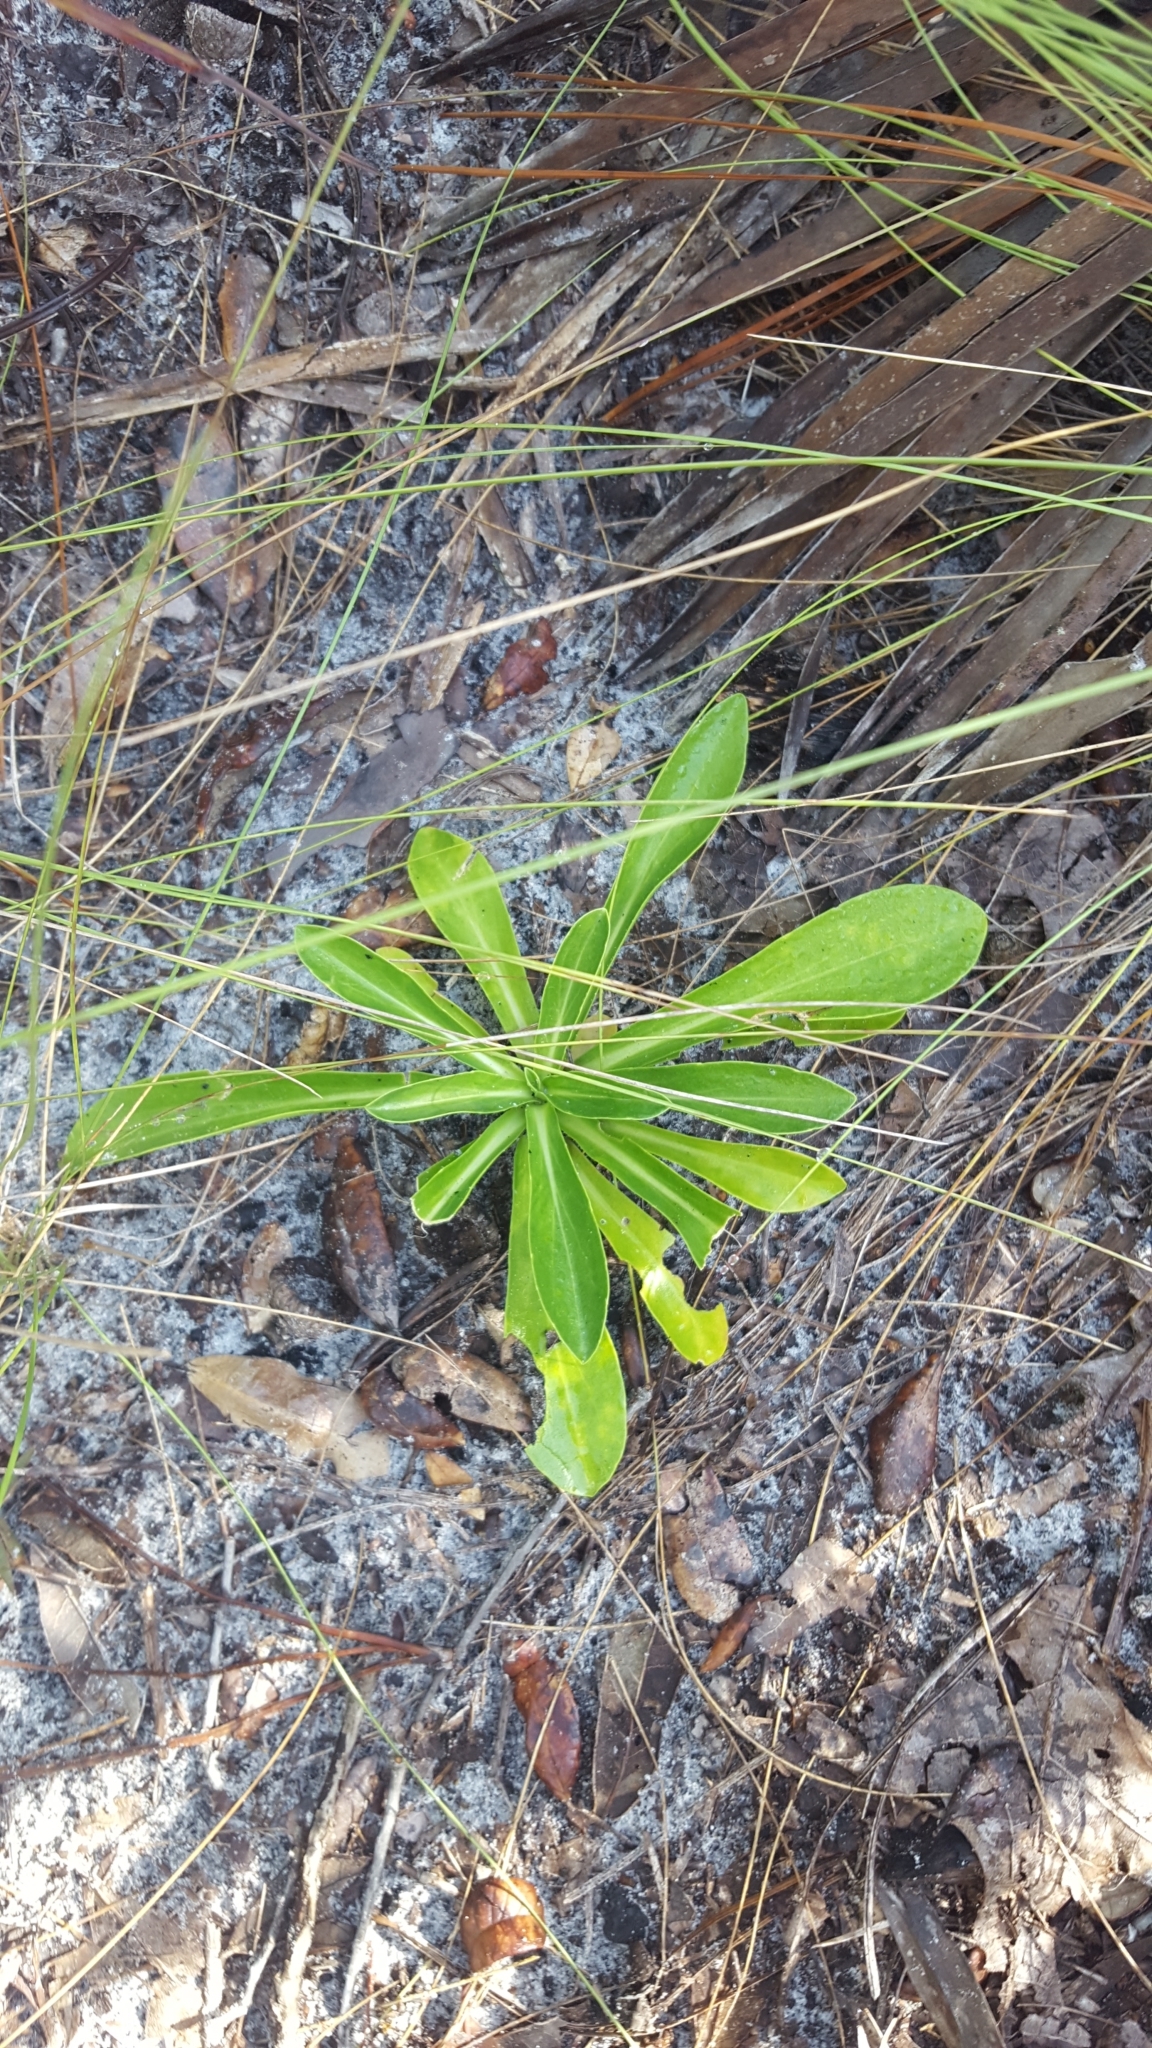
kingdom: Plantae
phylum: Tracheophyta
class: Magnoliopsida
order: Asterales
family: Asteraceae
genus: Carphephorus
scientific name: Carphephorus corymbosus
